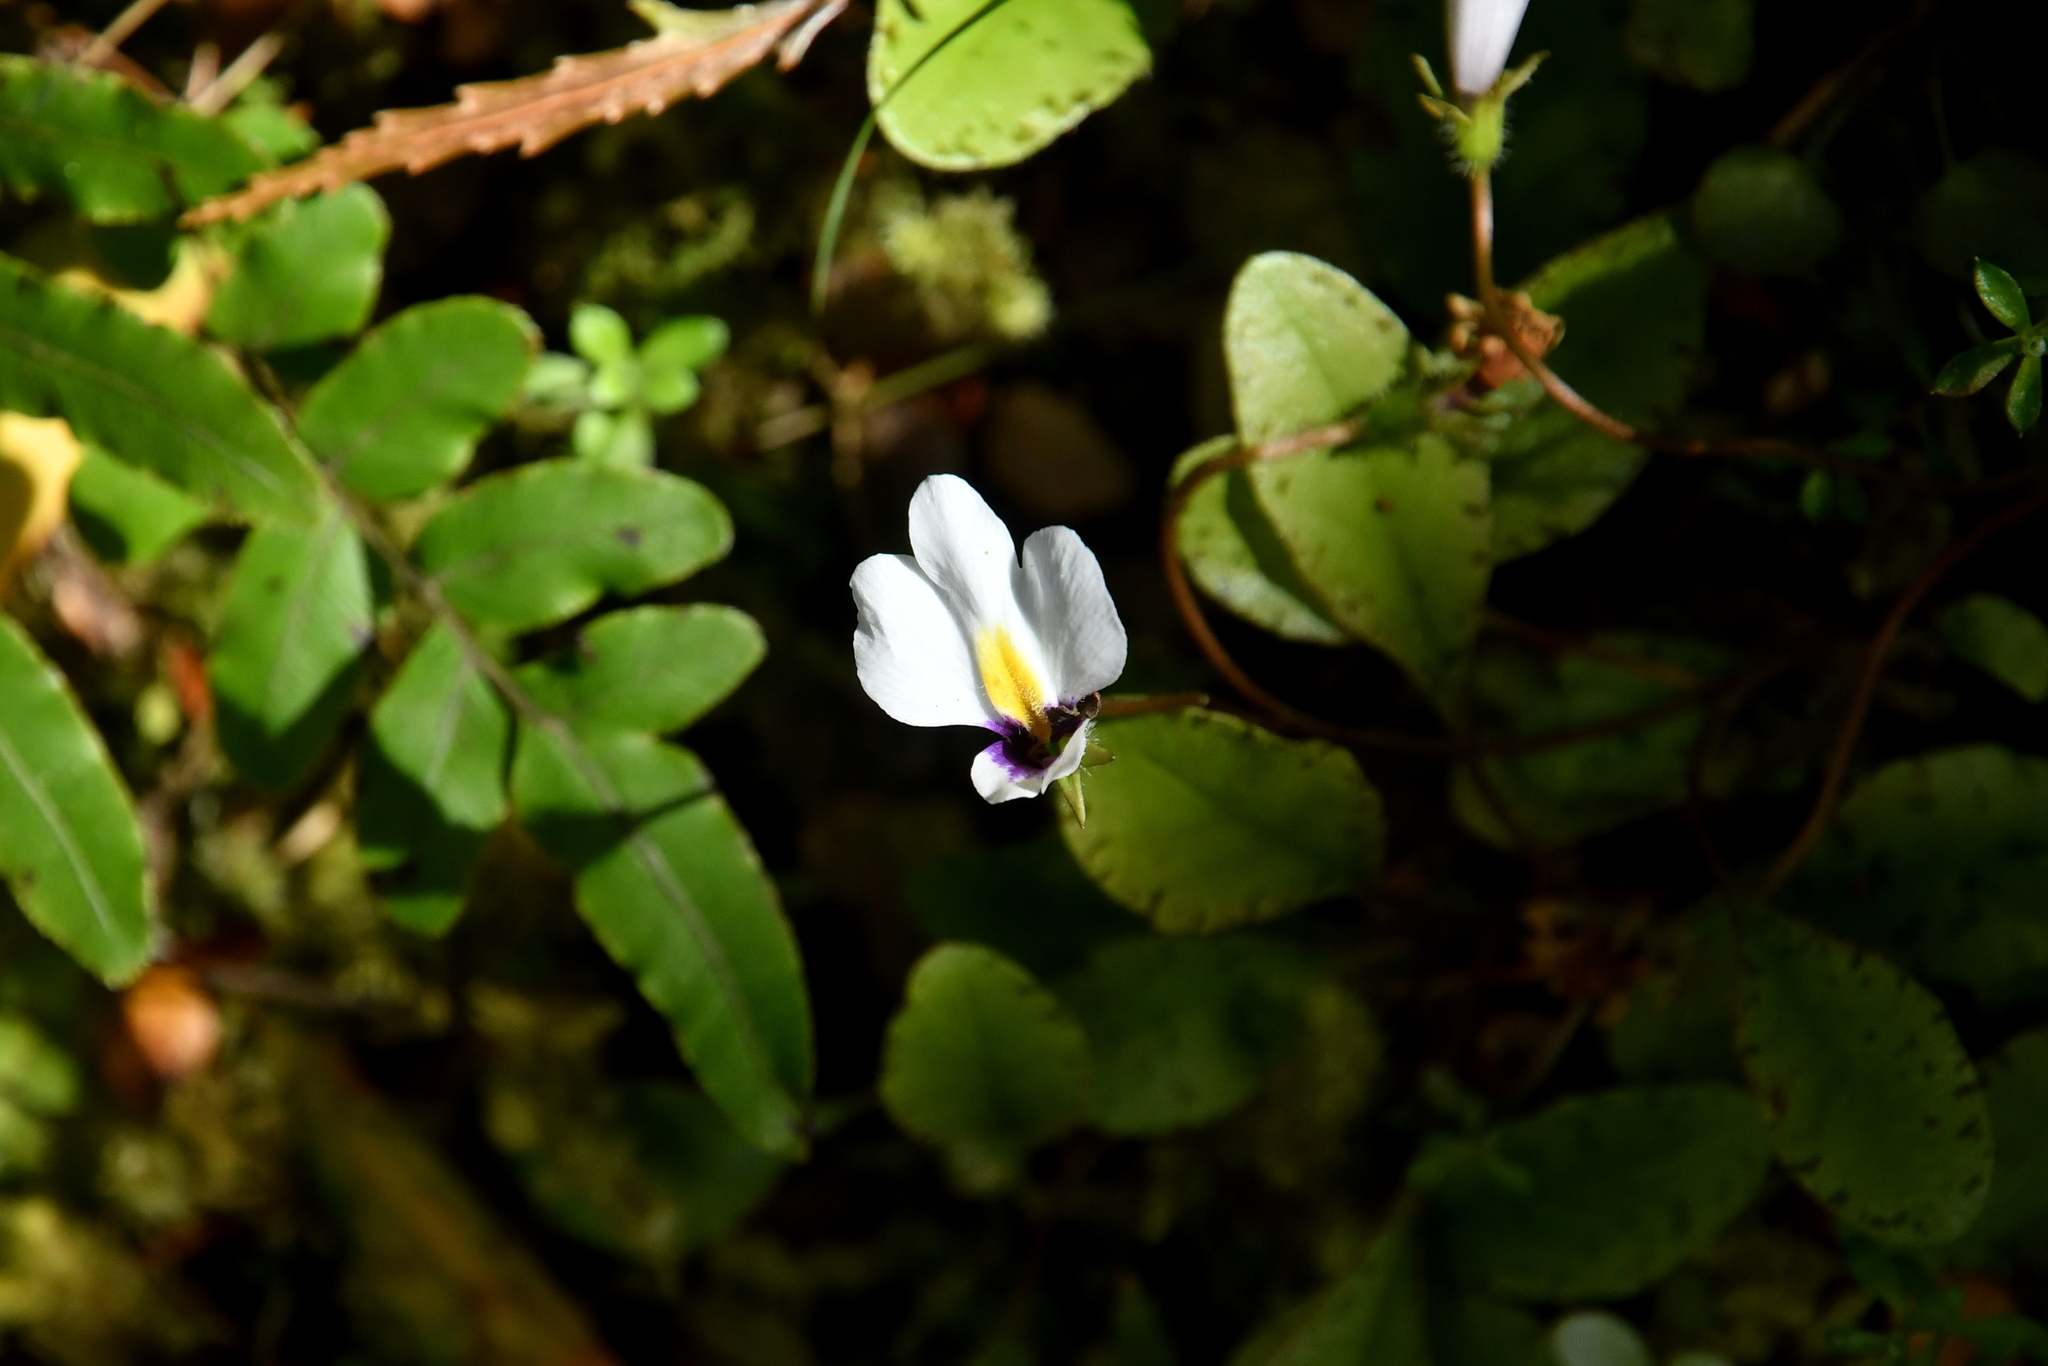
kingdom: Plantae
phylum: Tracheophyta
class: Magnoliopsida
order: Lamiales
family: Mazaceae
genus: Mazus
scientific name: Mazus radicans
